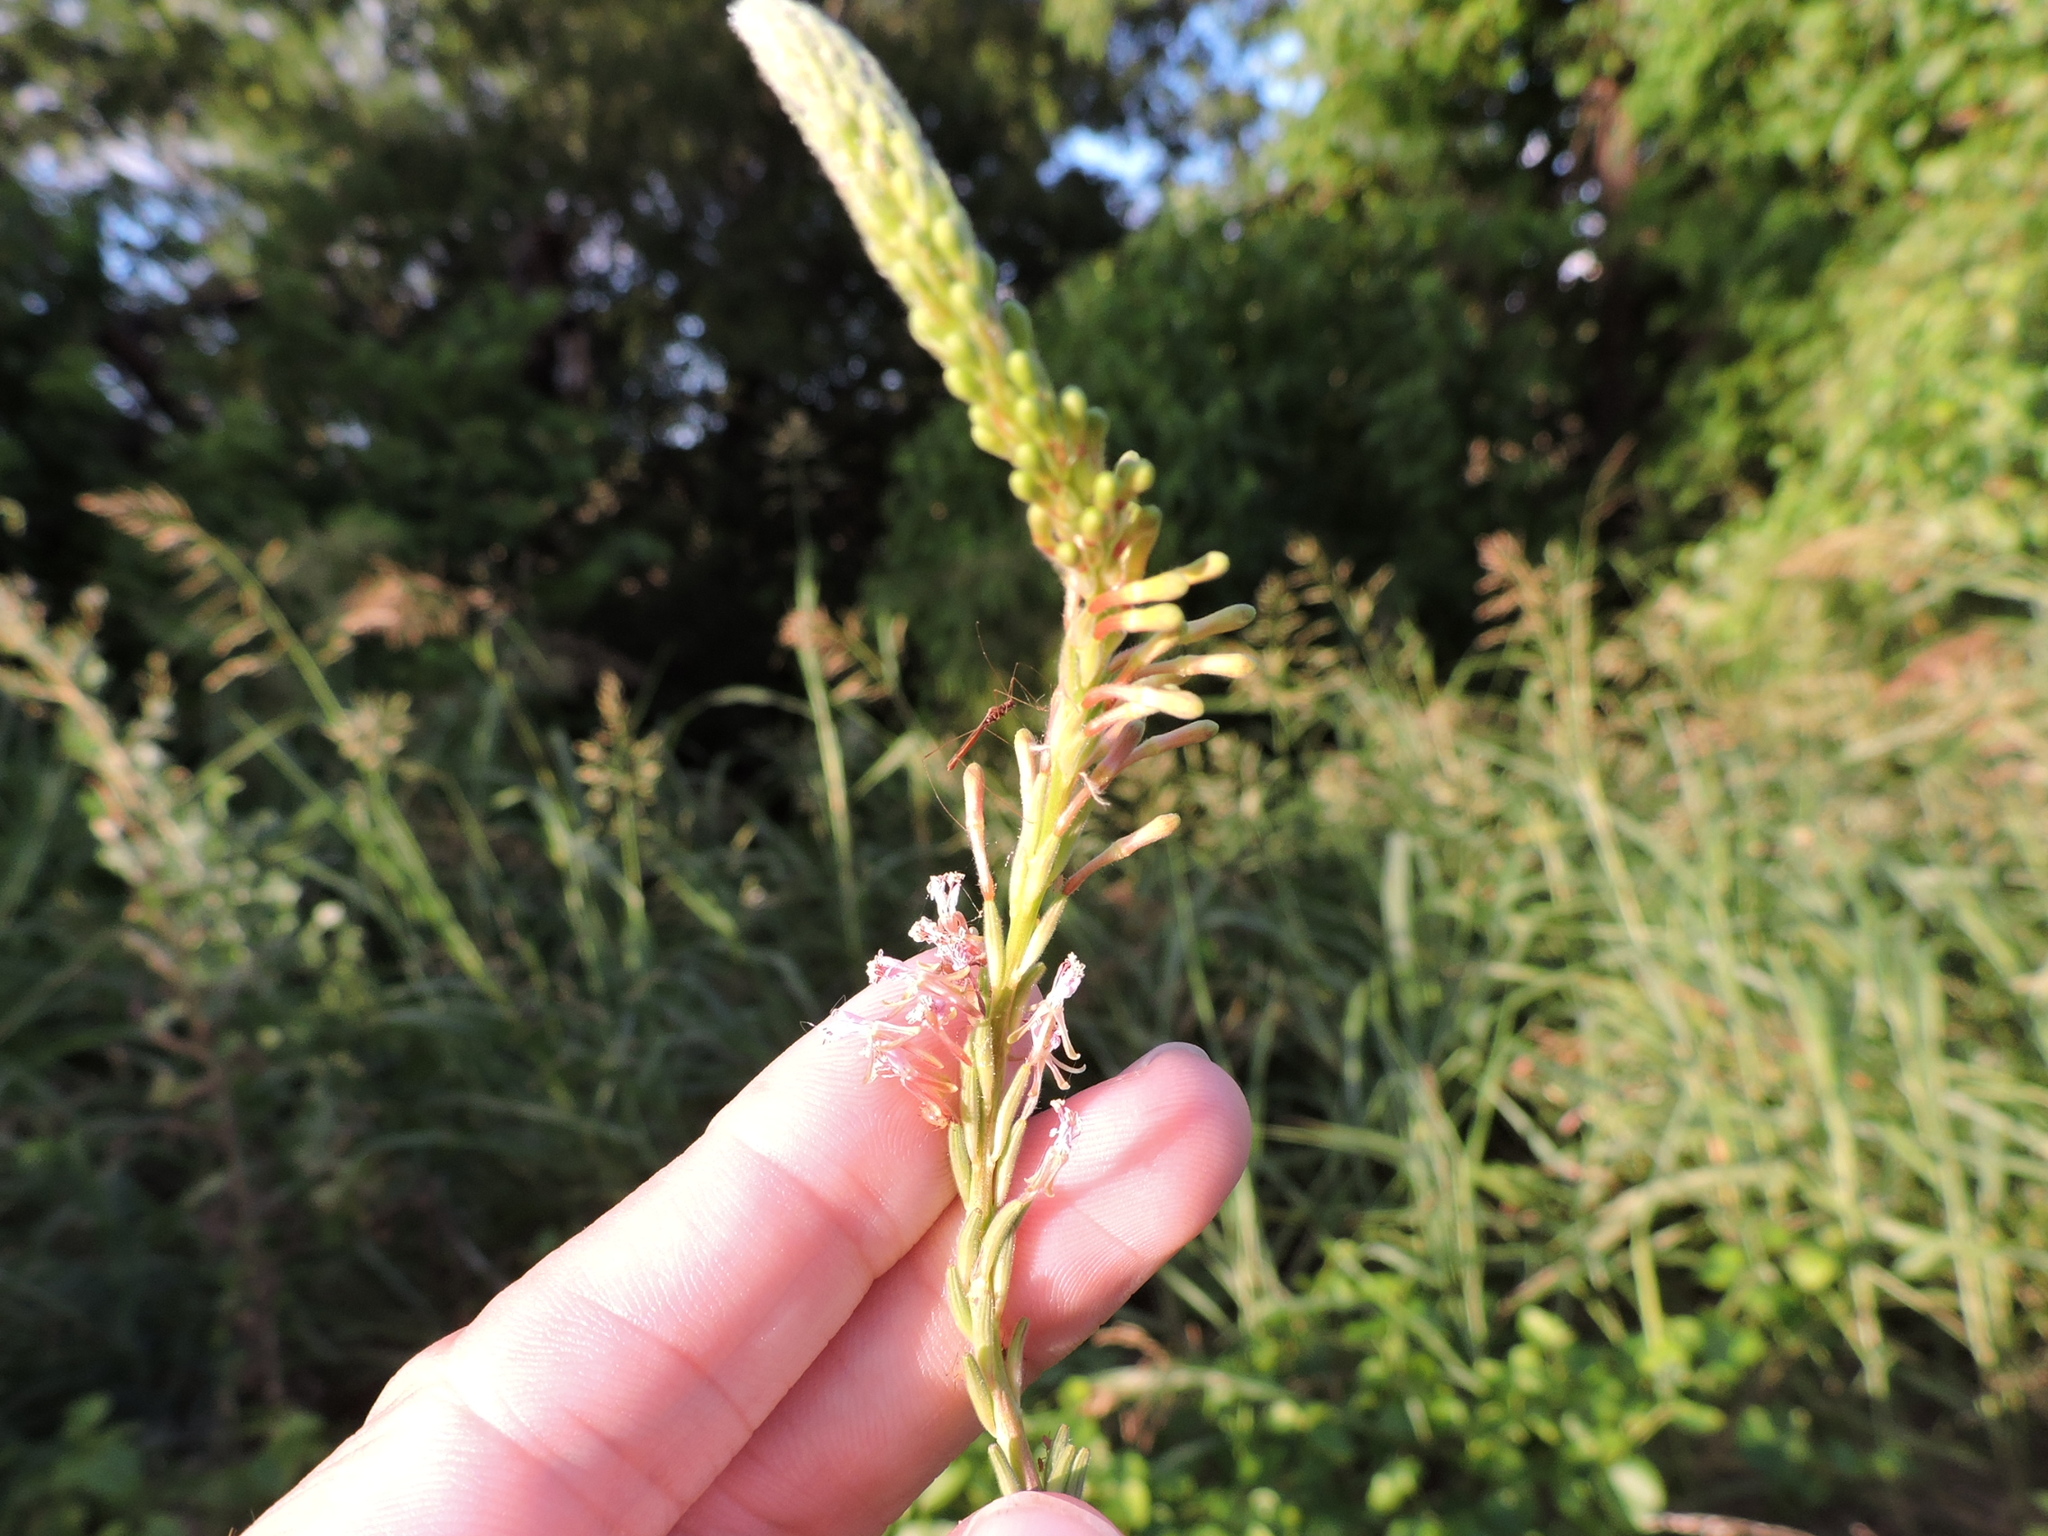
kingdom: Plantae
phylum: Tracheophyta
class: Magnoliopsida
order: Myrtales
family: Onagraceae
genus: Oenothera
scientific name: Oenothera curtiflora
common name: Velvetweed
